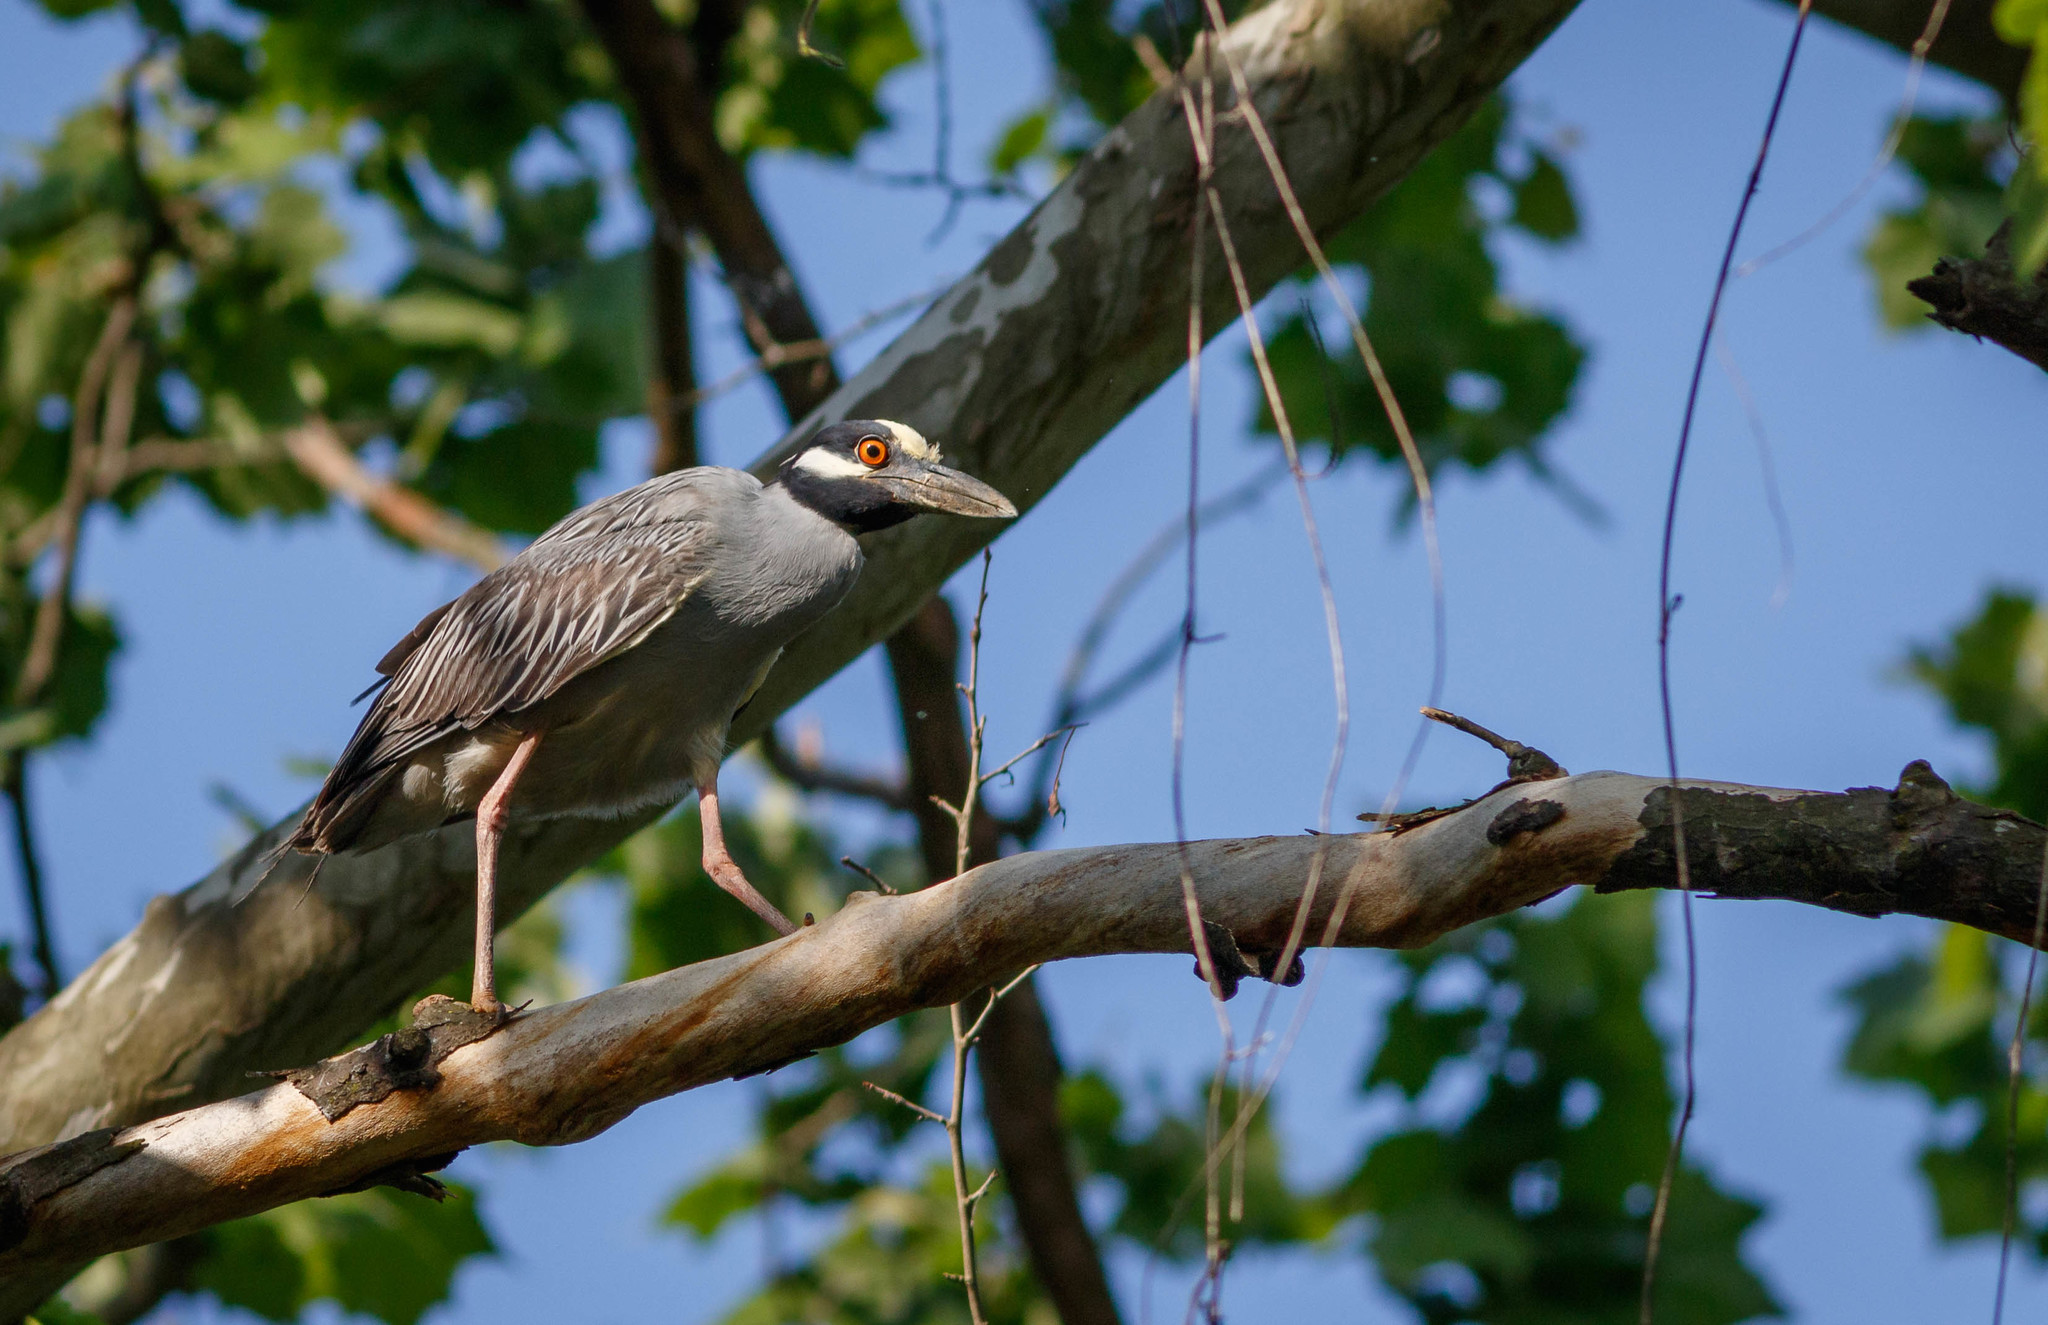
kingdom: Animalia
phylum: Chordata
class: Aves
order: Pelecaniformes
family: Ardeidae
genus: Nyctanassa
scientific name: Nyctanassa violacea
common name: Yellow-crowned night heron
